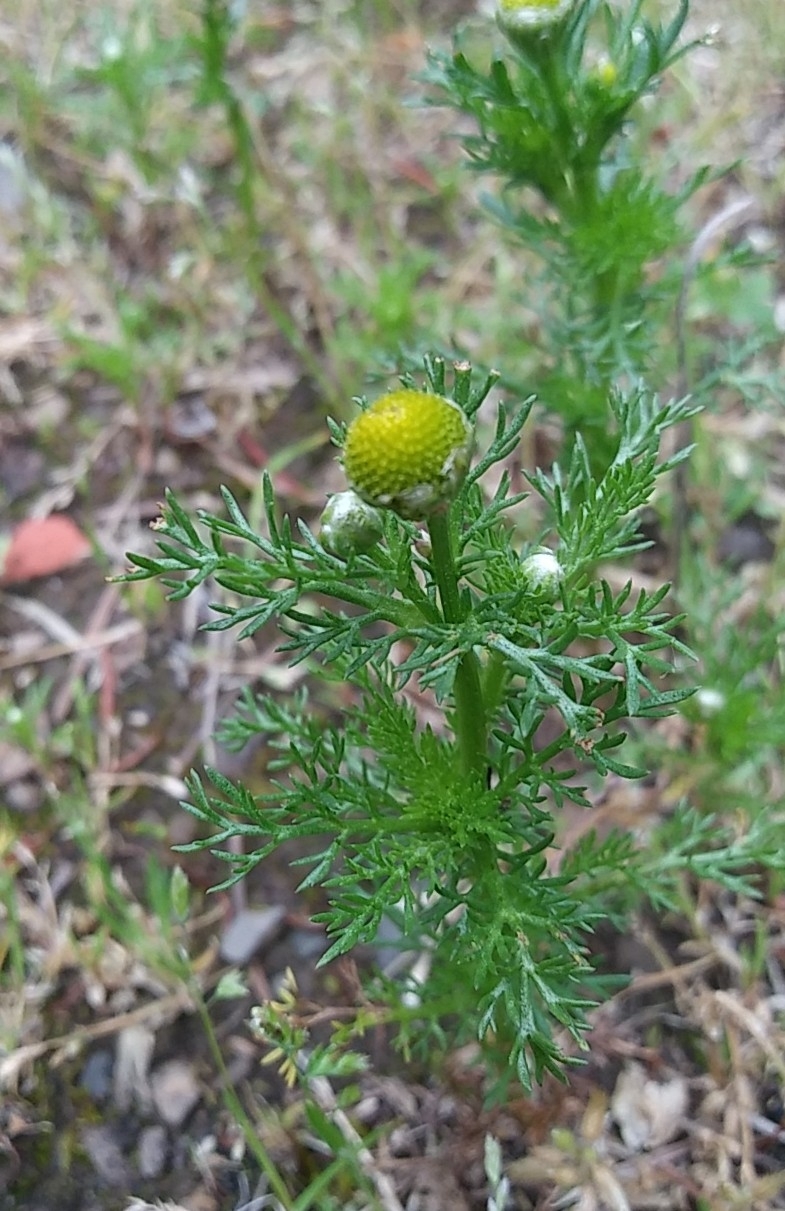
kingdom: Plantae
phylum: Tracheophyta
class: Magnoliopsida
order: Asterales
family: Asteraceae
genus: Matricaria
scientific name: Matricaria discoidea
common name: Disc mayweed
